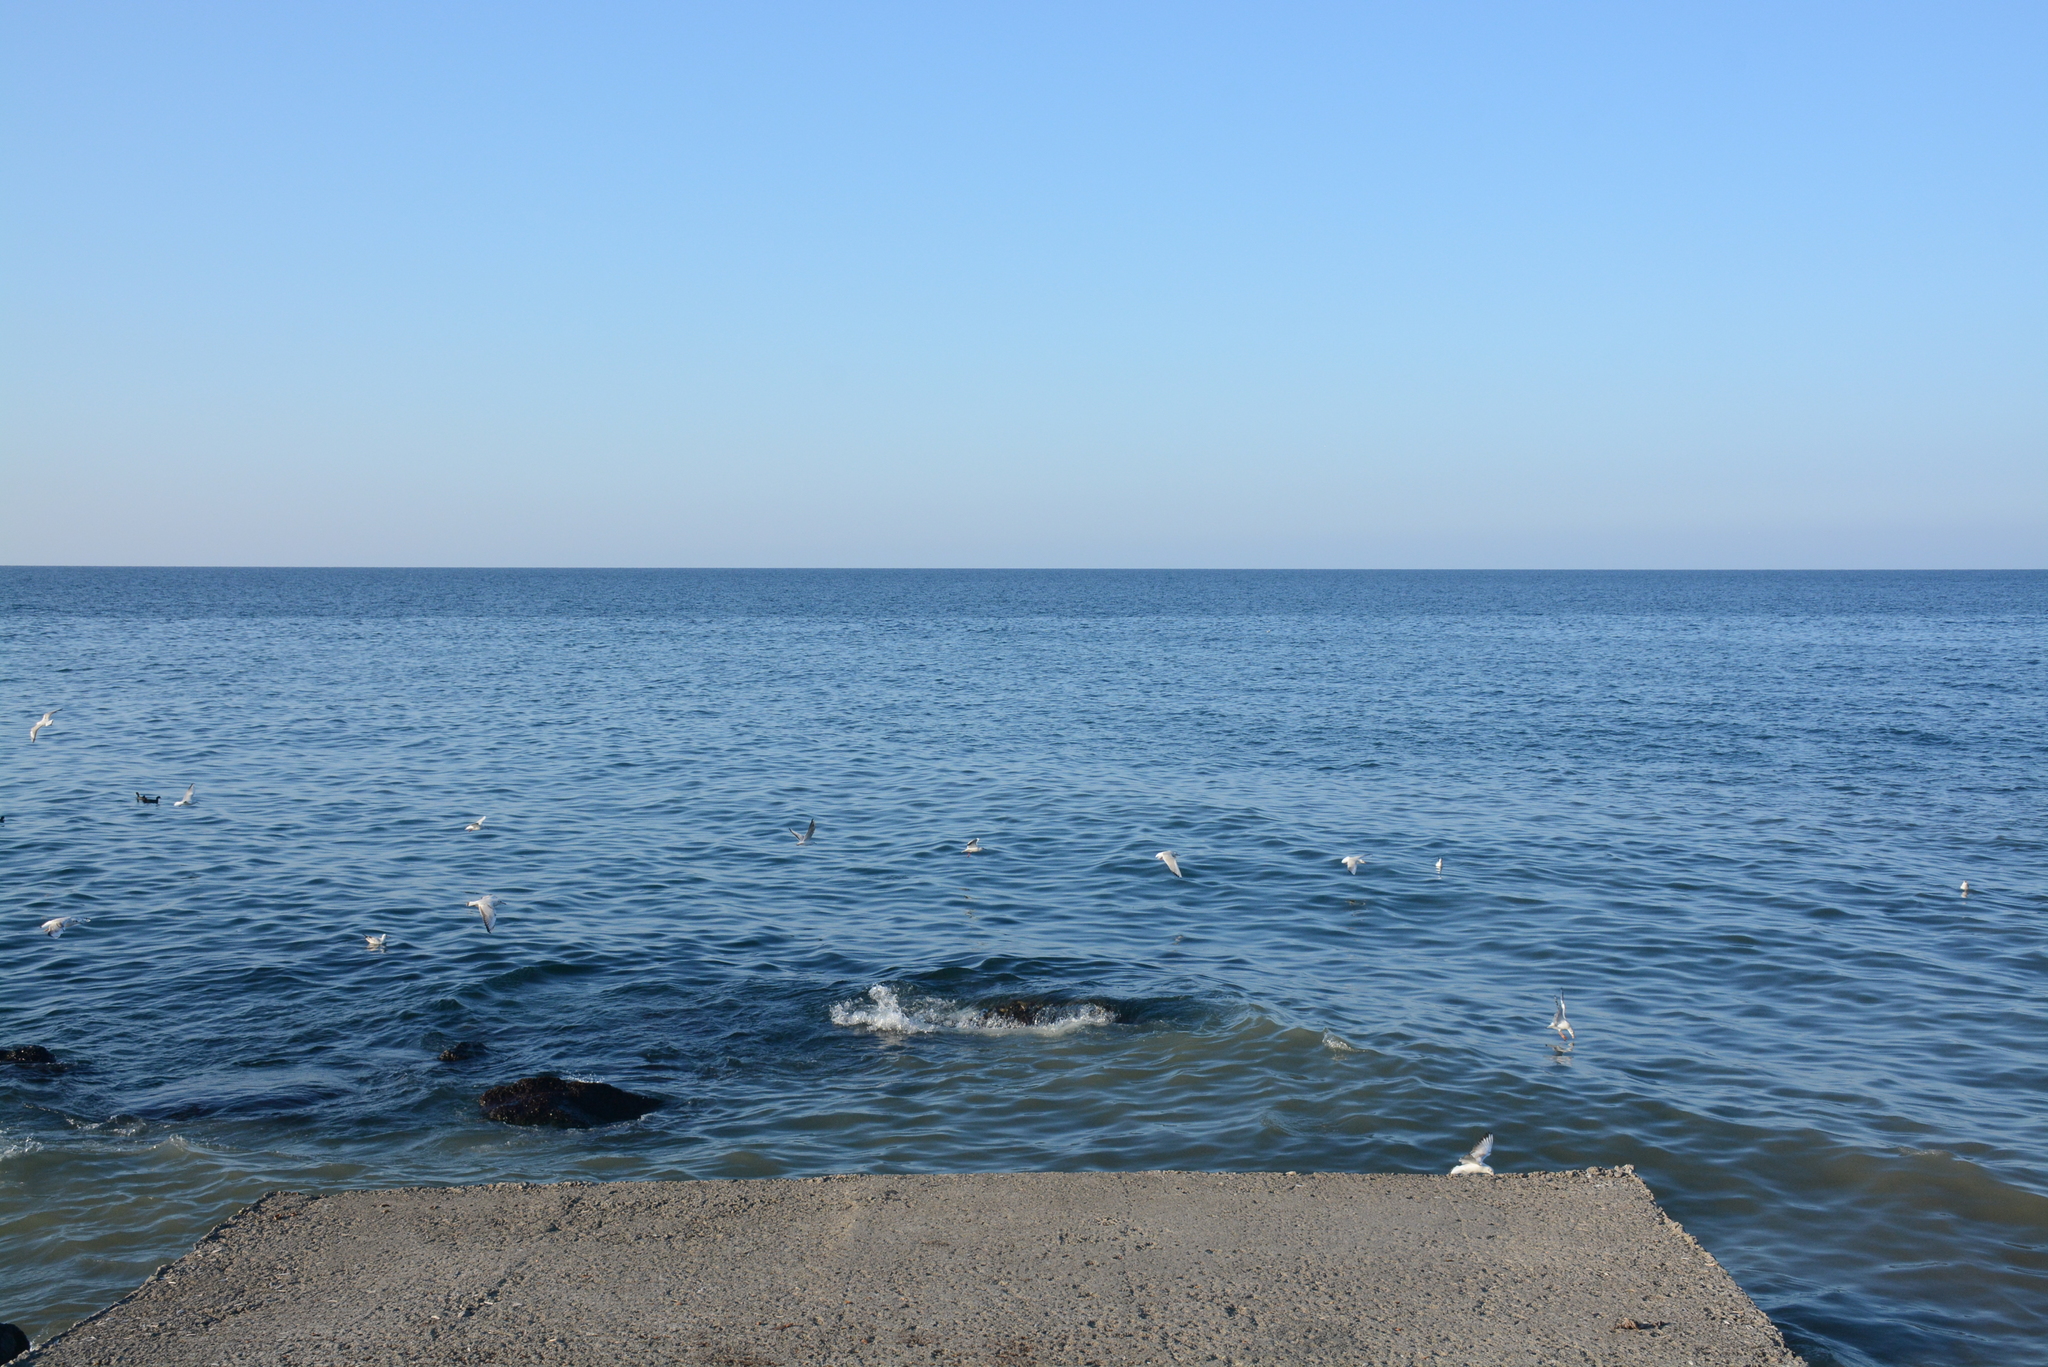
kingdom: Animalia
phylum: Chordata
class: Aves
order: Charadriiformes
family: Laridae
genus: Chroicocephalus
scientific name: Chroicocephalus ridibundus
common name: Black-headed gull
